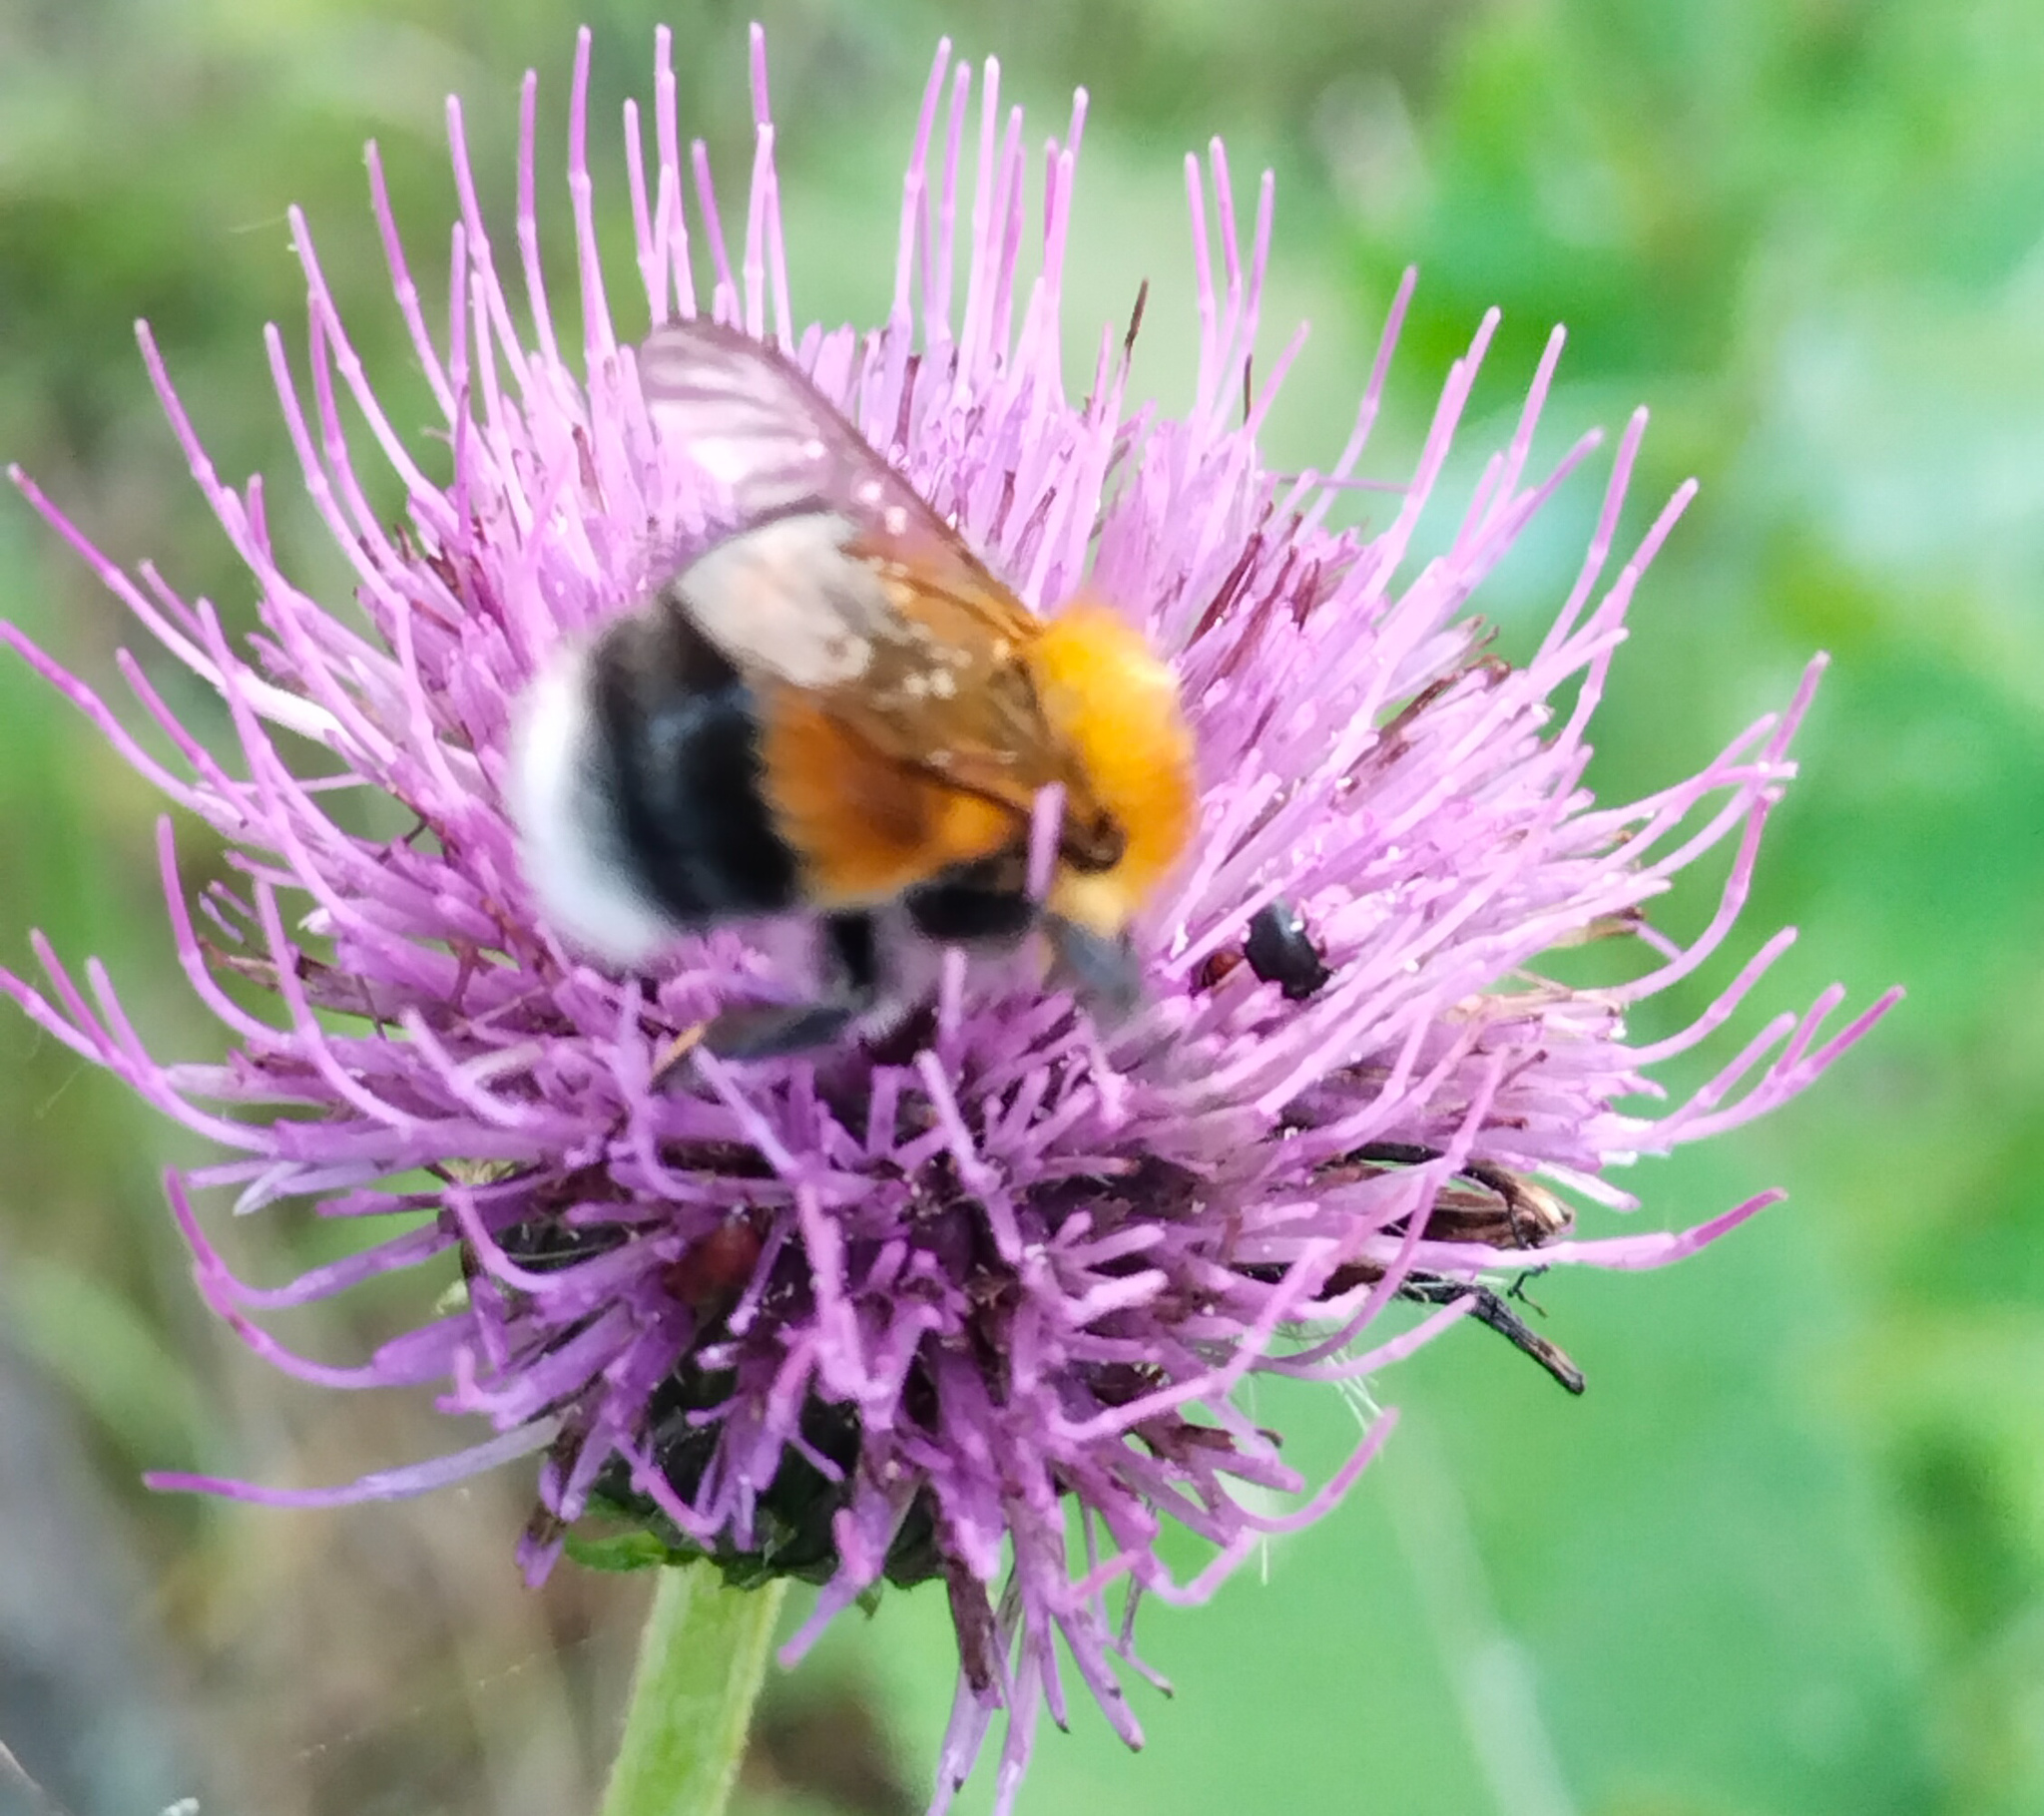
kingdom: Animalia
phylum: Arthropoda
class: Insecta
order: Hymenoptera
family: Apidae
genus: Bombus
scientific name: Bombus hypnorum
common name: New garden bumblebee
